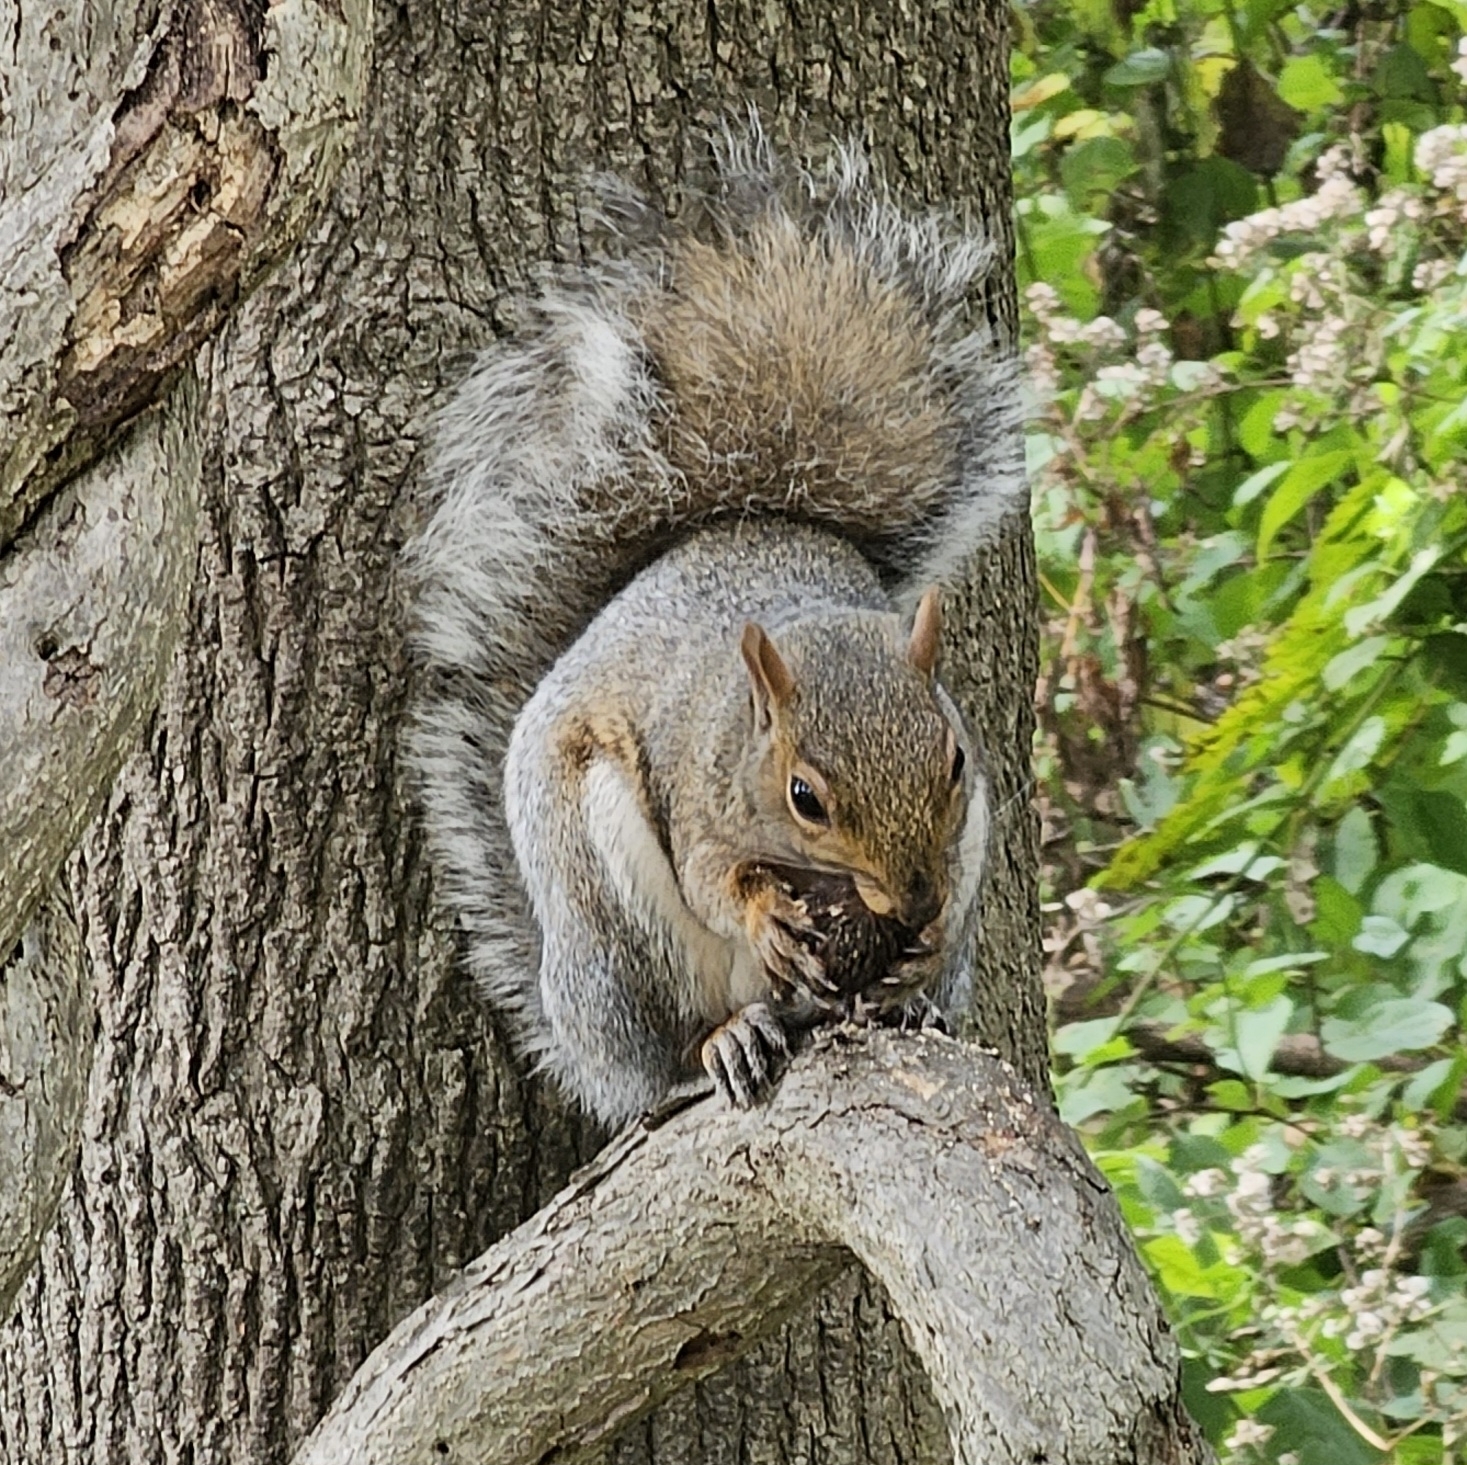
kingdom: Animalia
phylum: Chordata
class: Mammalia
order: Rodentia
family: Sciuridae
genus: Sciurus
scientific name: Sciurus carolinensis
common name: Eastern gray squirrel
